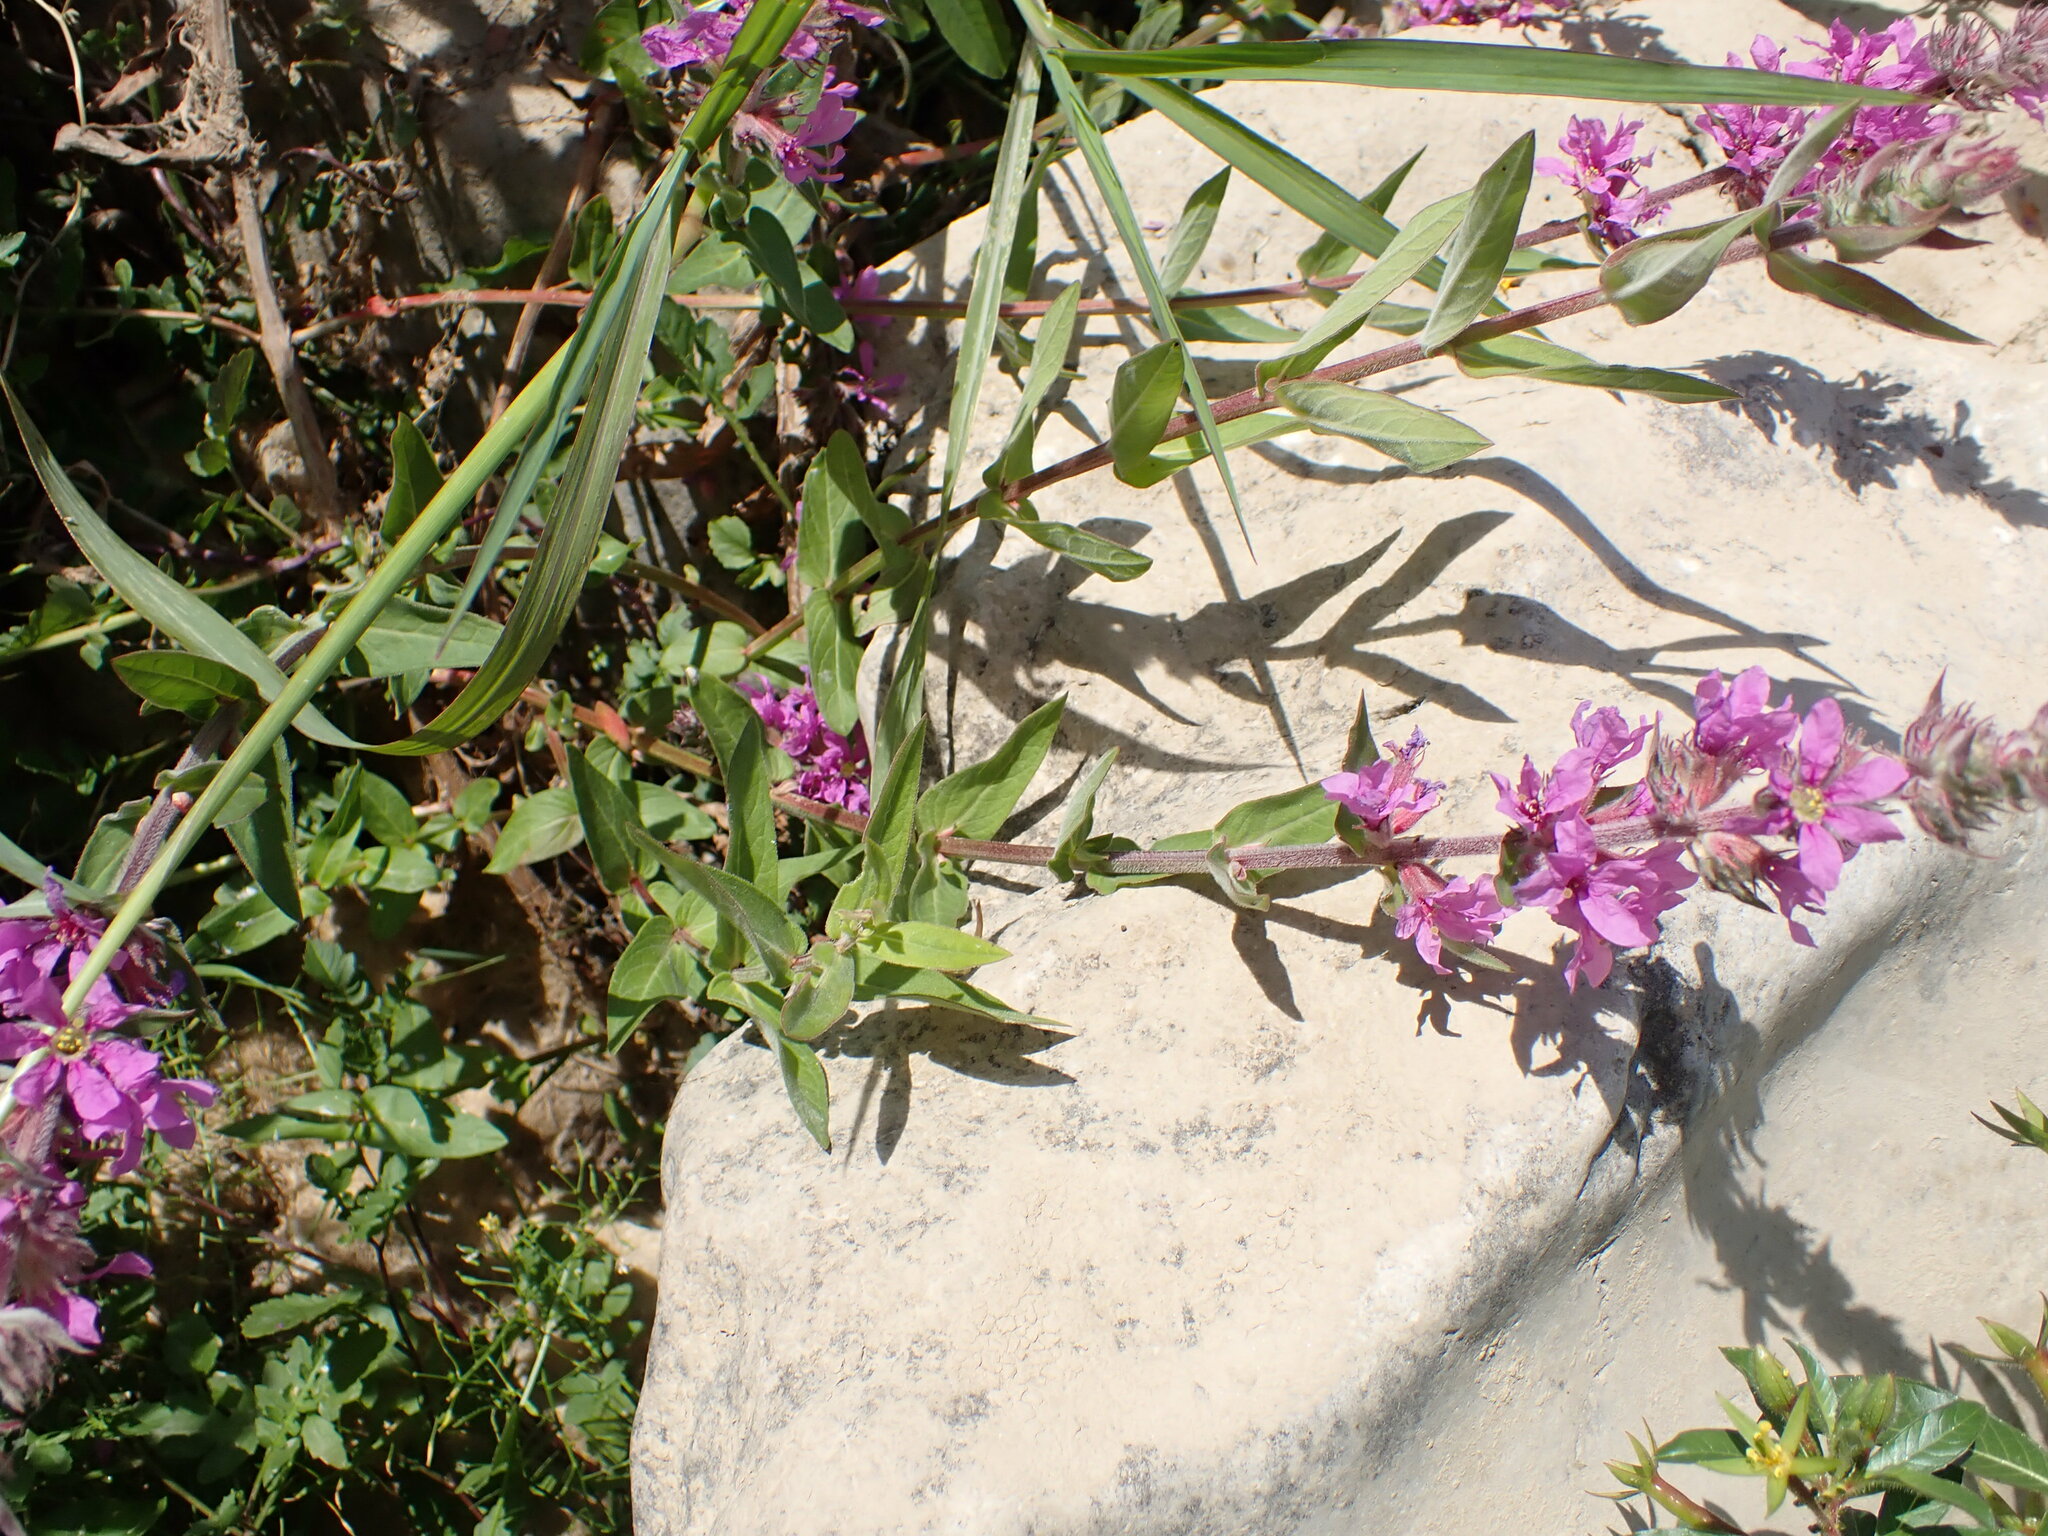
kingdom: Plantae
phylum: Tracheophyta
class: Magnoliopsida
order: Myrtales
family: Lythraceae
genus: Lythrum
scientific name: Lythrum salicaria
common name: Purple loosestrife
